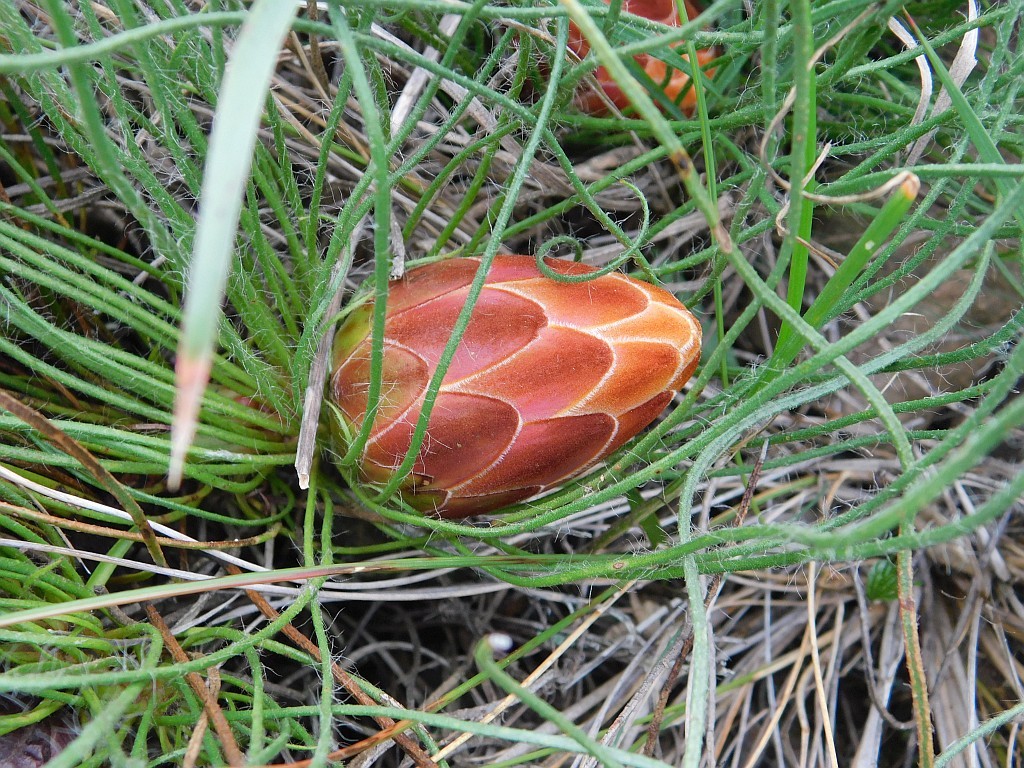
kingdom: Plantae
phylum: Tracheophyta
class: Magnoliopsida
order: Proteales
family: Proteaceae
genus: Protea
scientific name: Protea restionifolia
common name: Reed-leaf sugarbush
